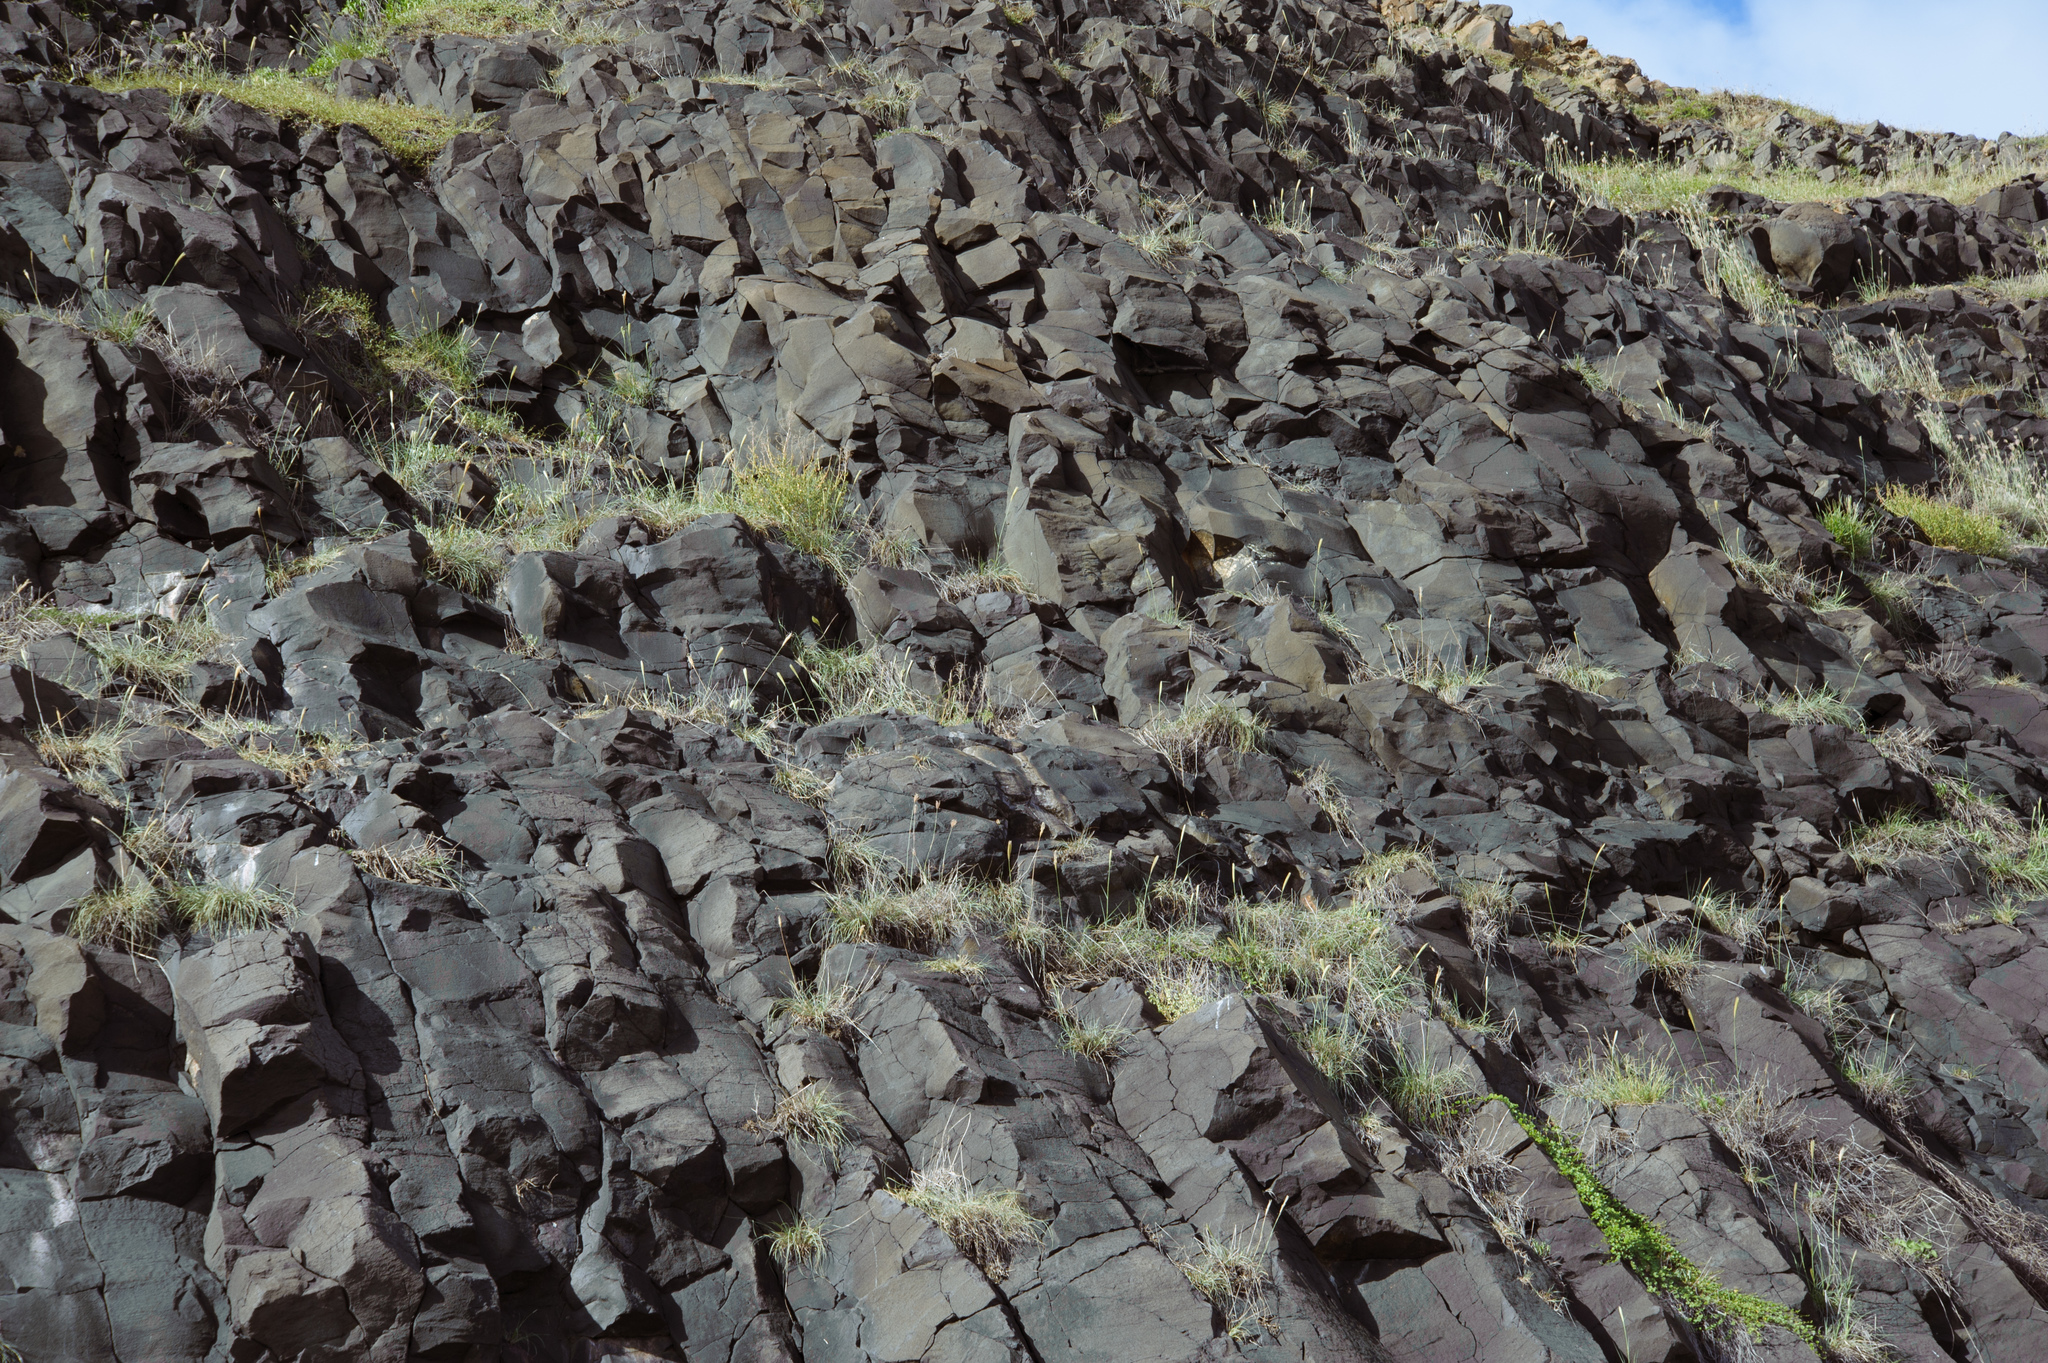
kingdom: Plantae
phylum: Tracheophyta
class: Liliopsida
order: Poales
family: Poaceae
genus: Chloris
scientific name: Chloris formosana
